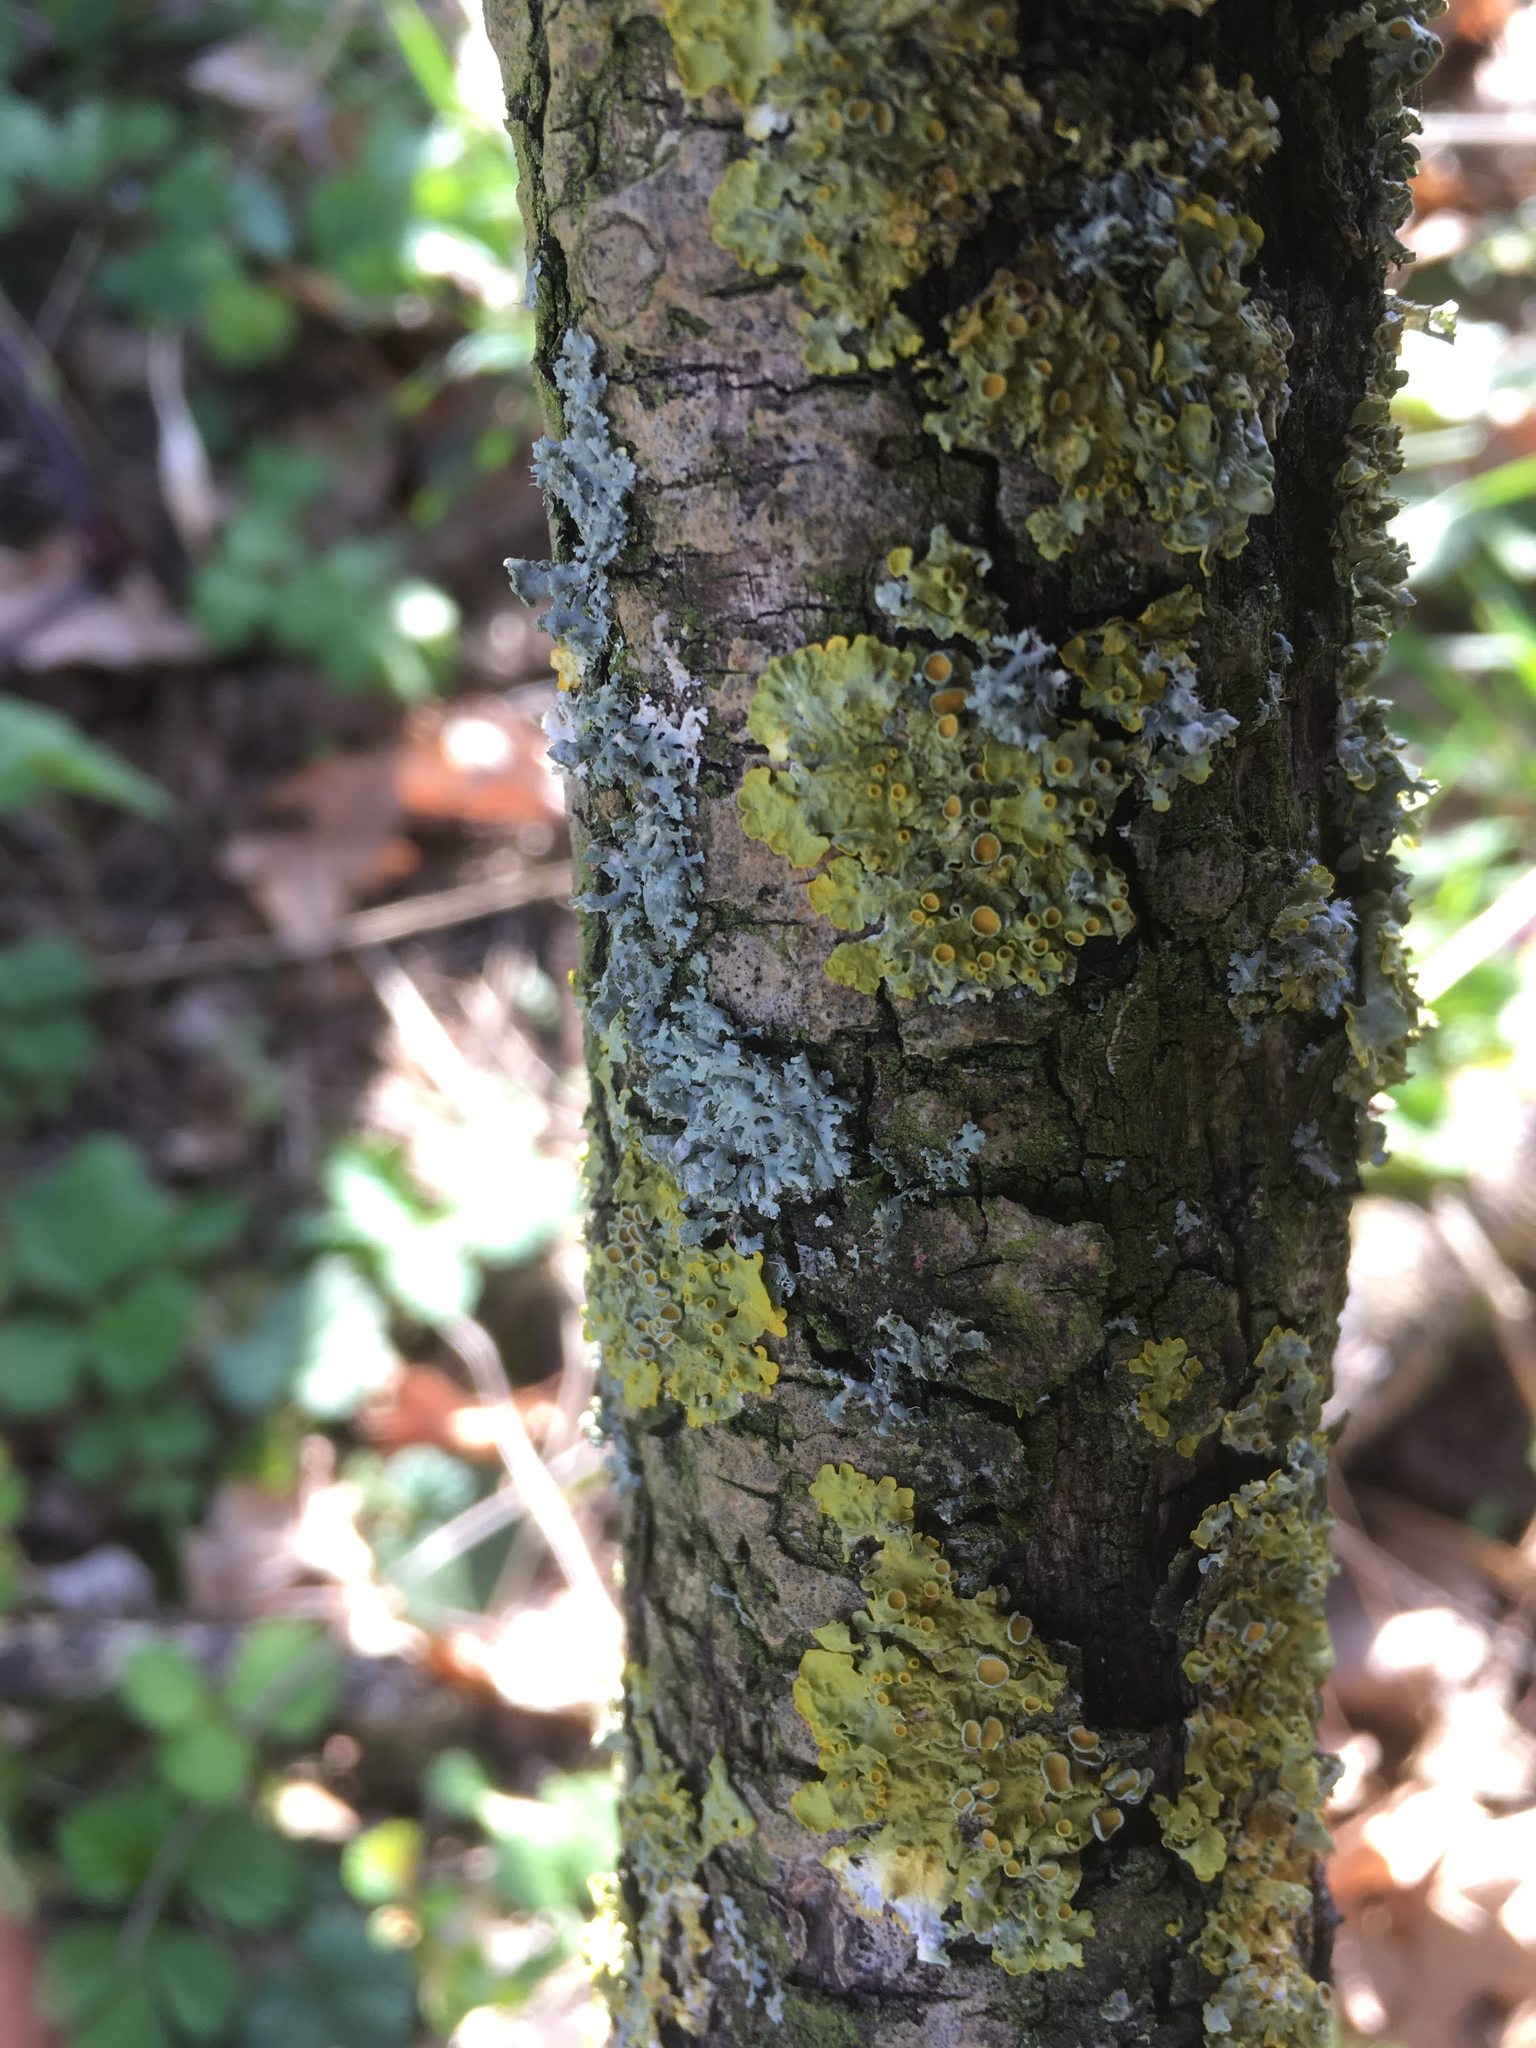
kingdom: Fungi
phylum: Ascomycota
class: Lecanoromycetes
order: Teloschistales
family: Teloschistaceae
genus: Xanthoria
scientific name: Xanthoria parietina
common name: Common orange lichen
